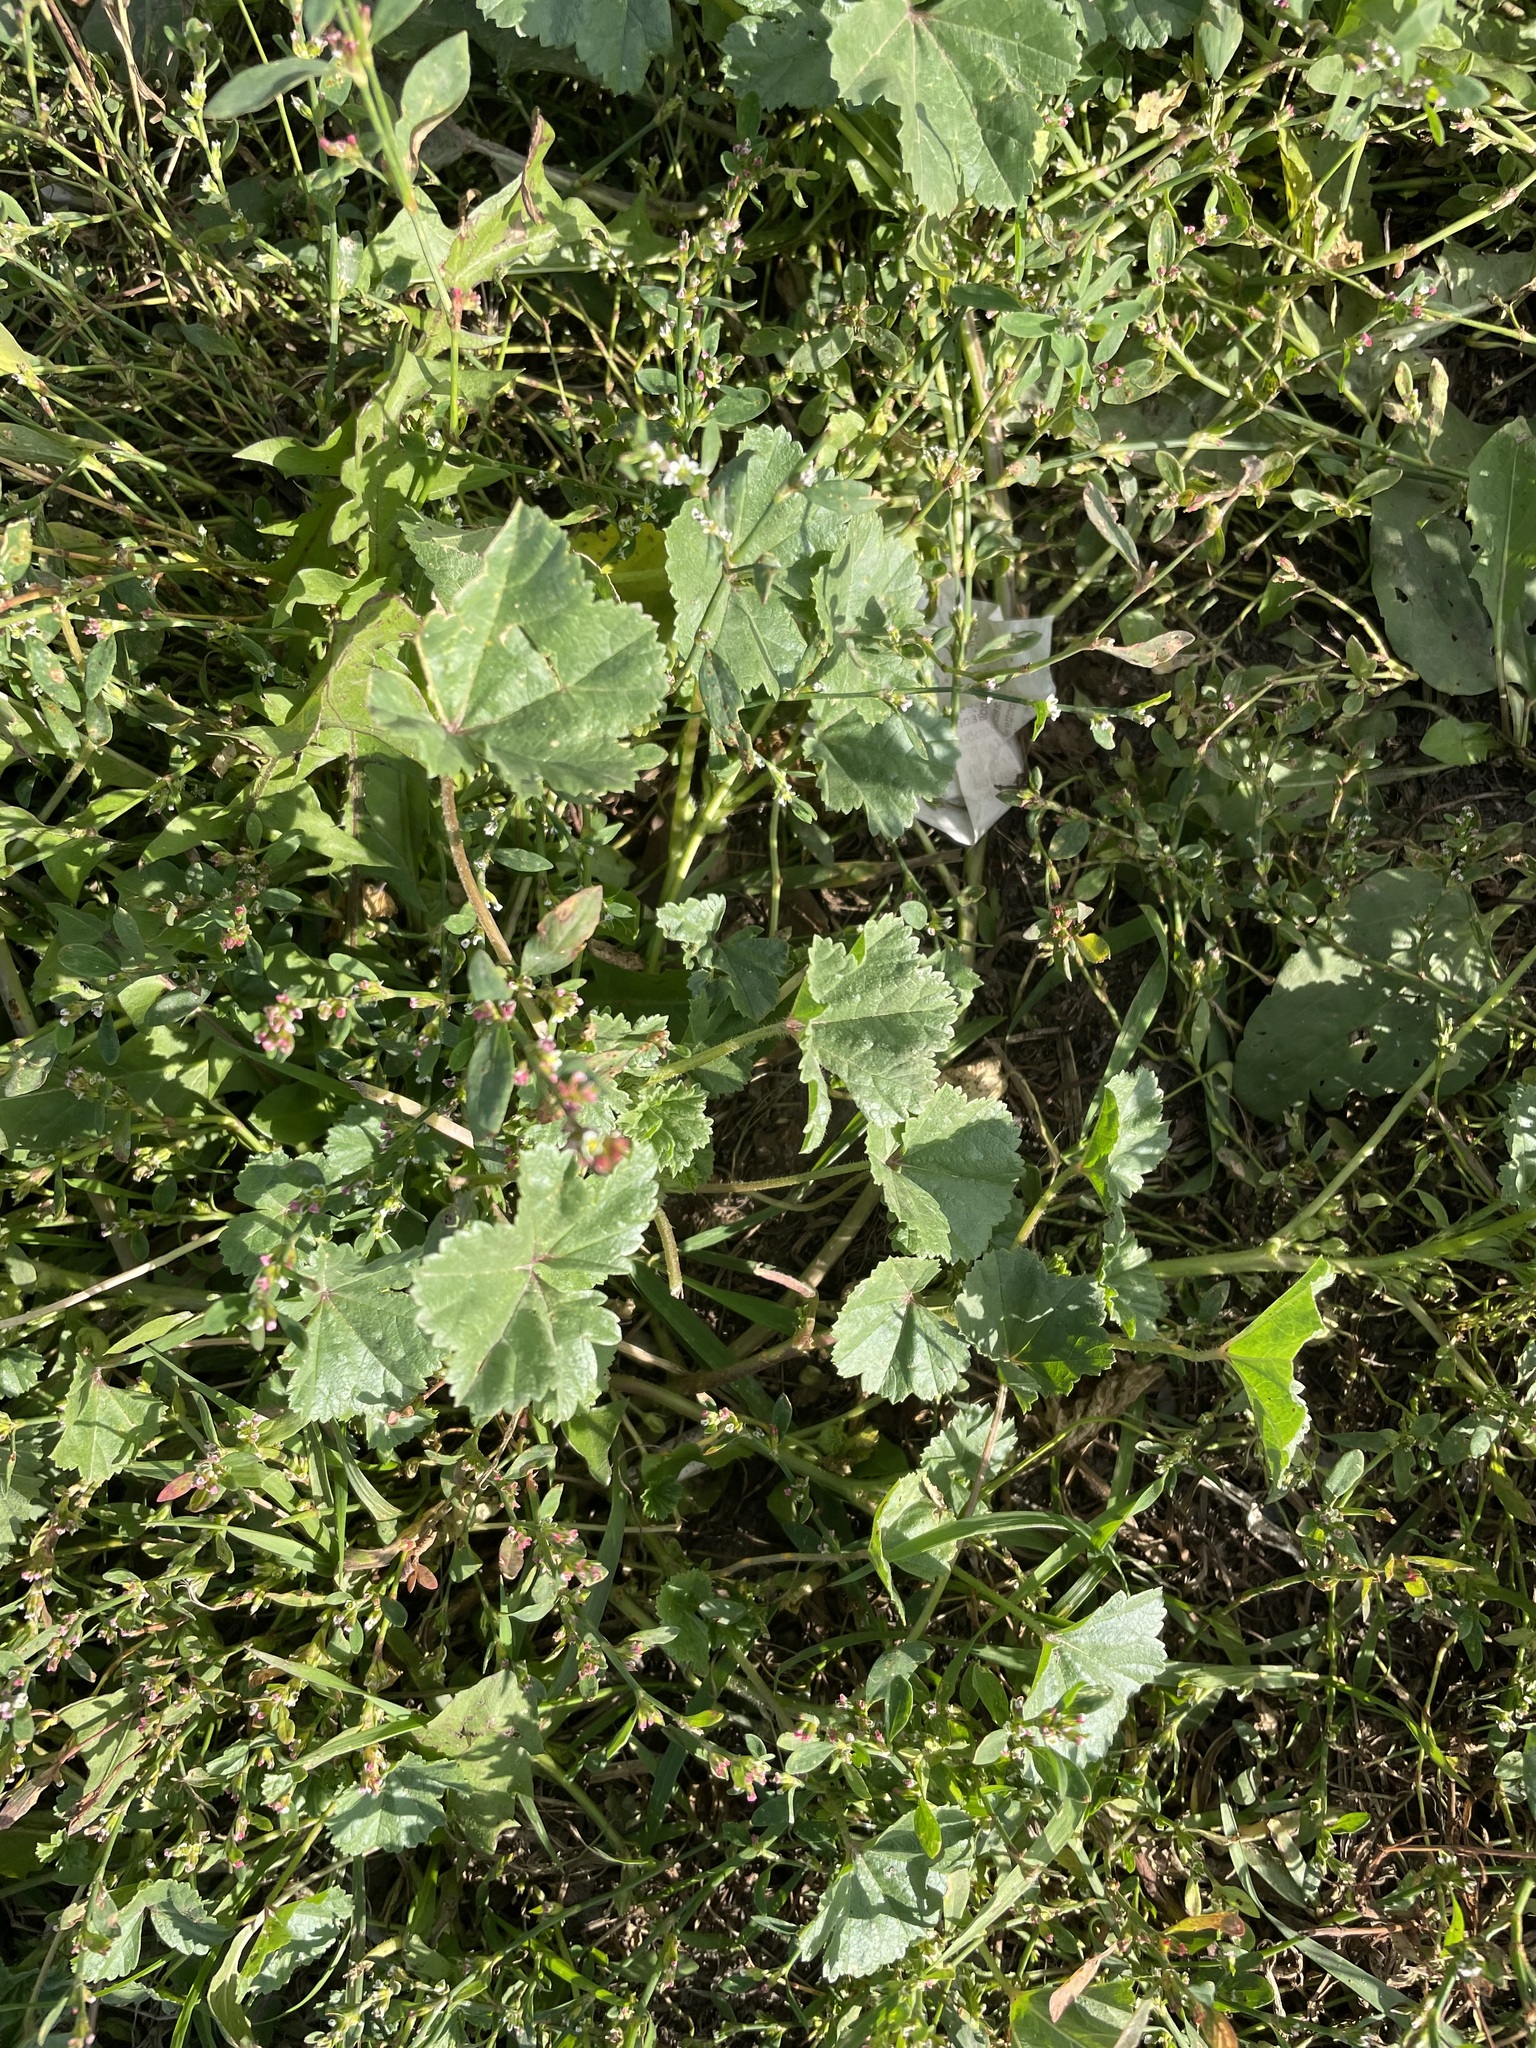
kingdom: Plantae
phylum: Tracheophyta
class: Magnoliopsida
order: Malvales
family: Malvaceae
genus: Malva
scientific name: Malva pusilla
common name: Small mallow
